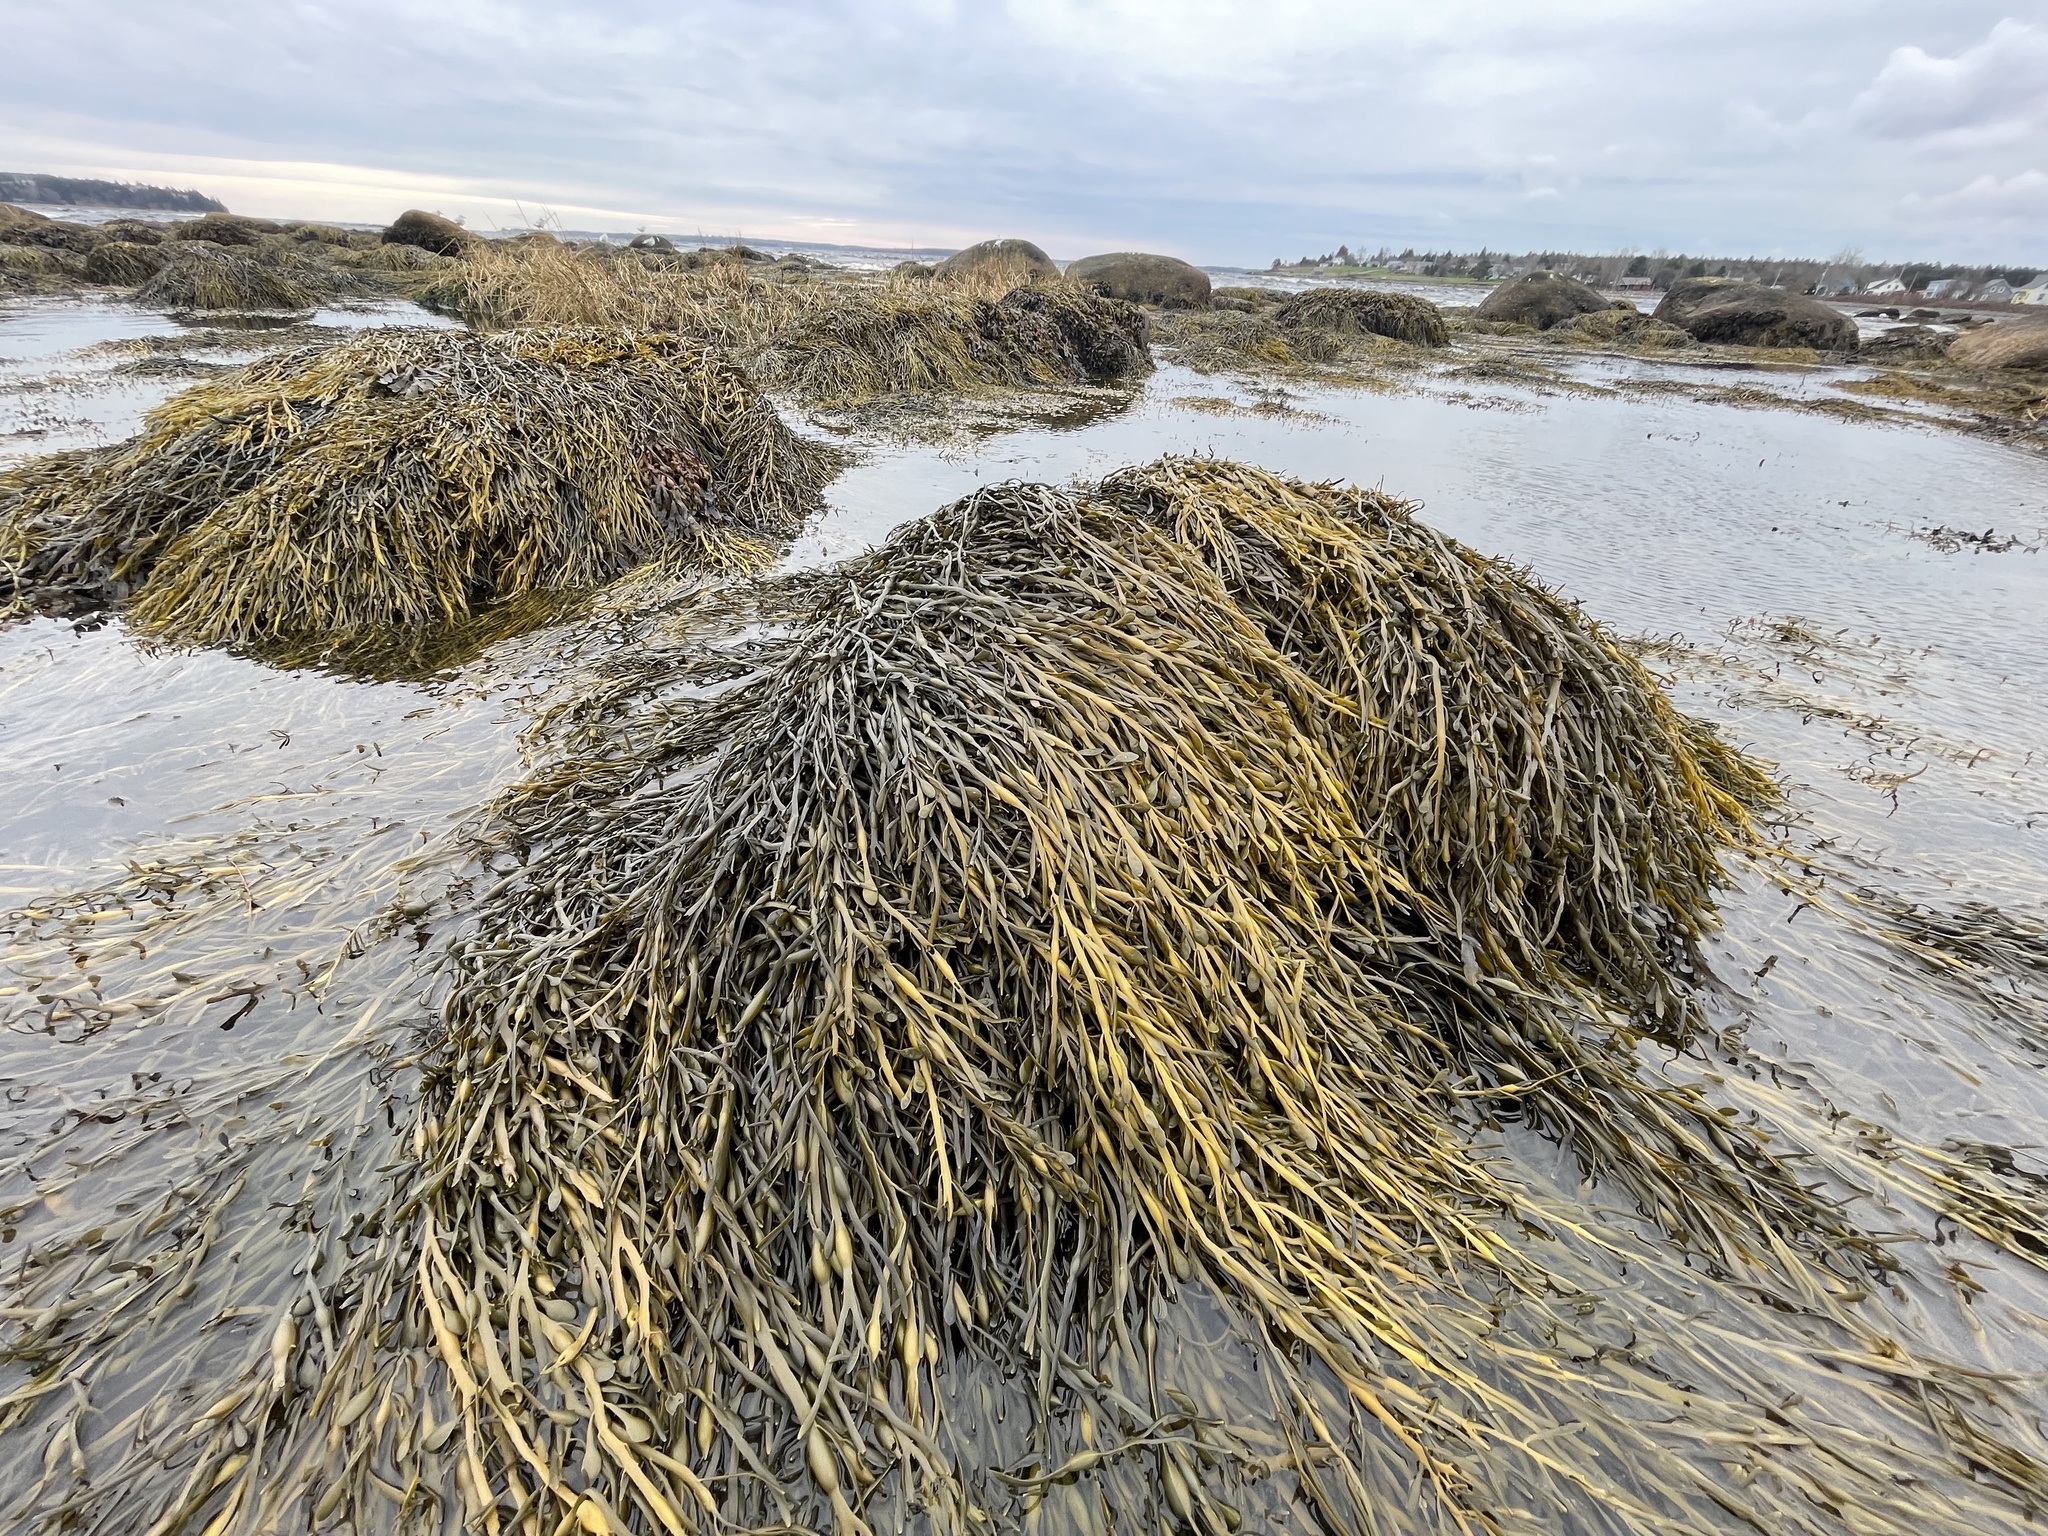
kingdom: Chromista
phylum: Ochrophyta
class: Phaeophyceae
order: Fucales
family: Fucaceae
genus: Ascophyllum
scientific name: Ascophyllum nodosum
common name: Knotted wrack
